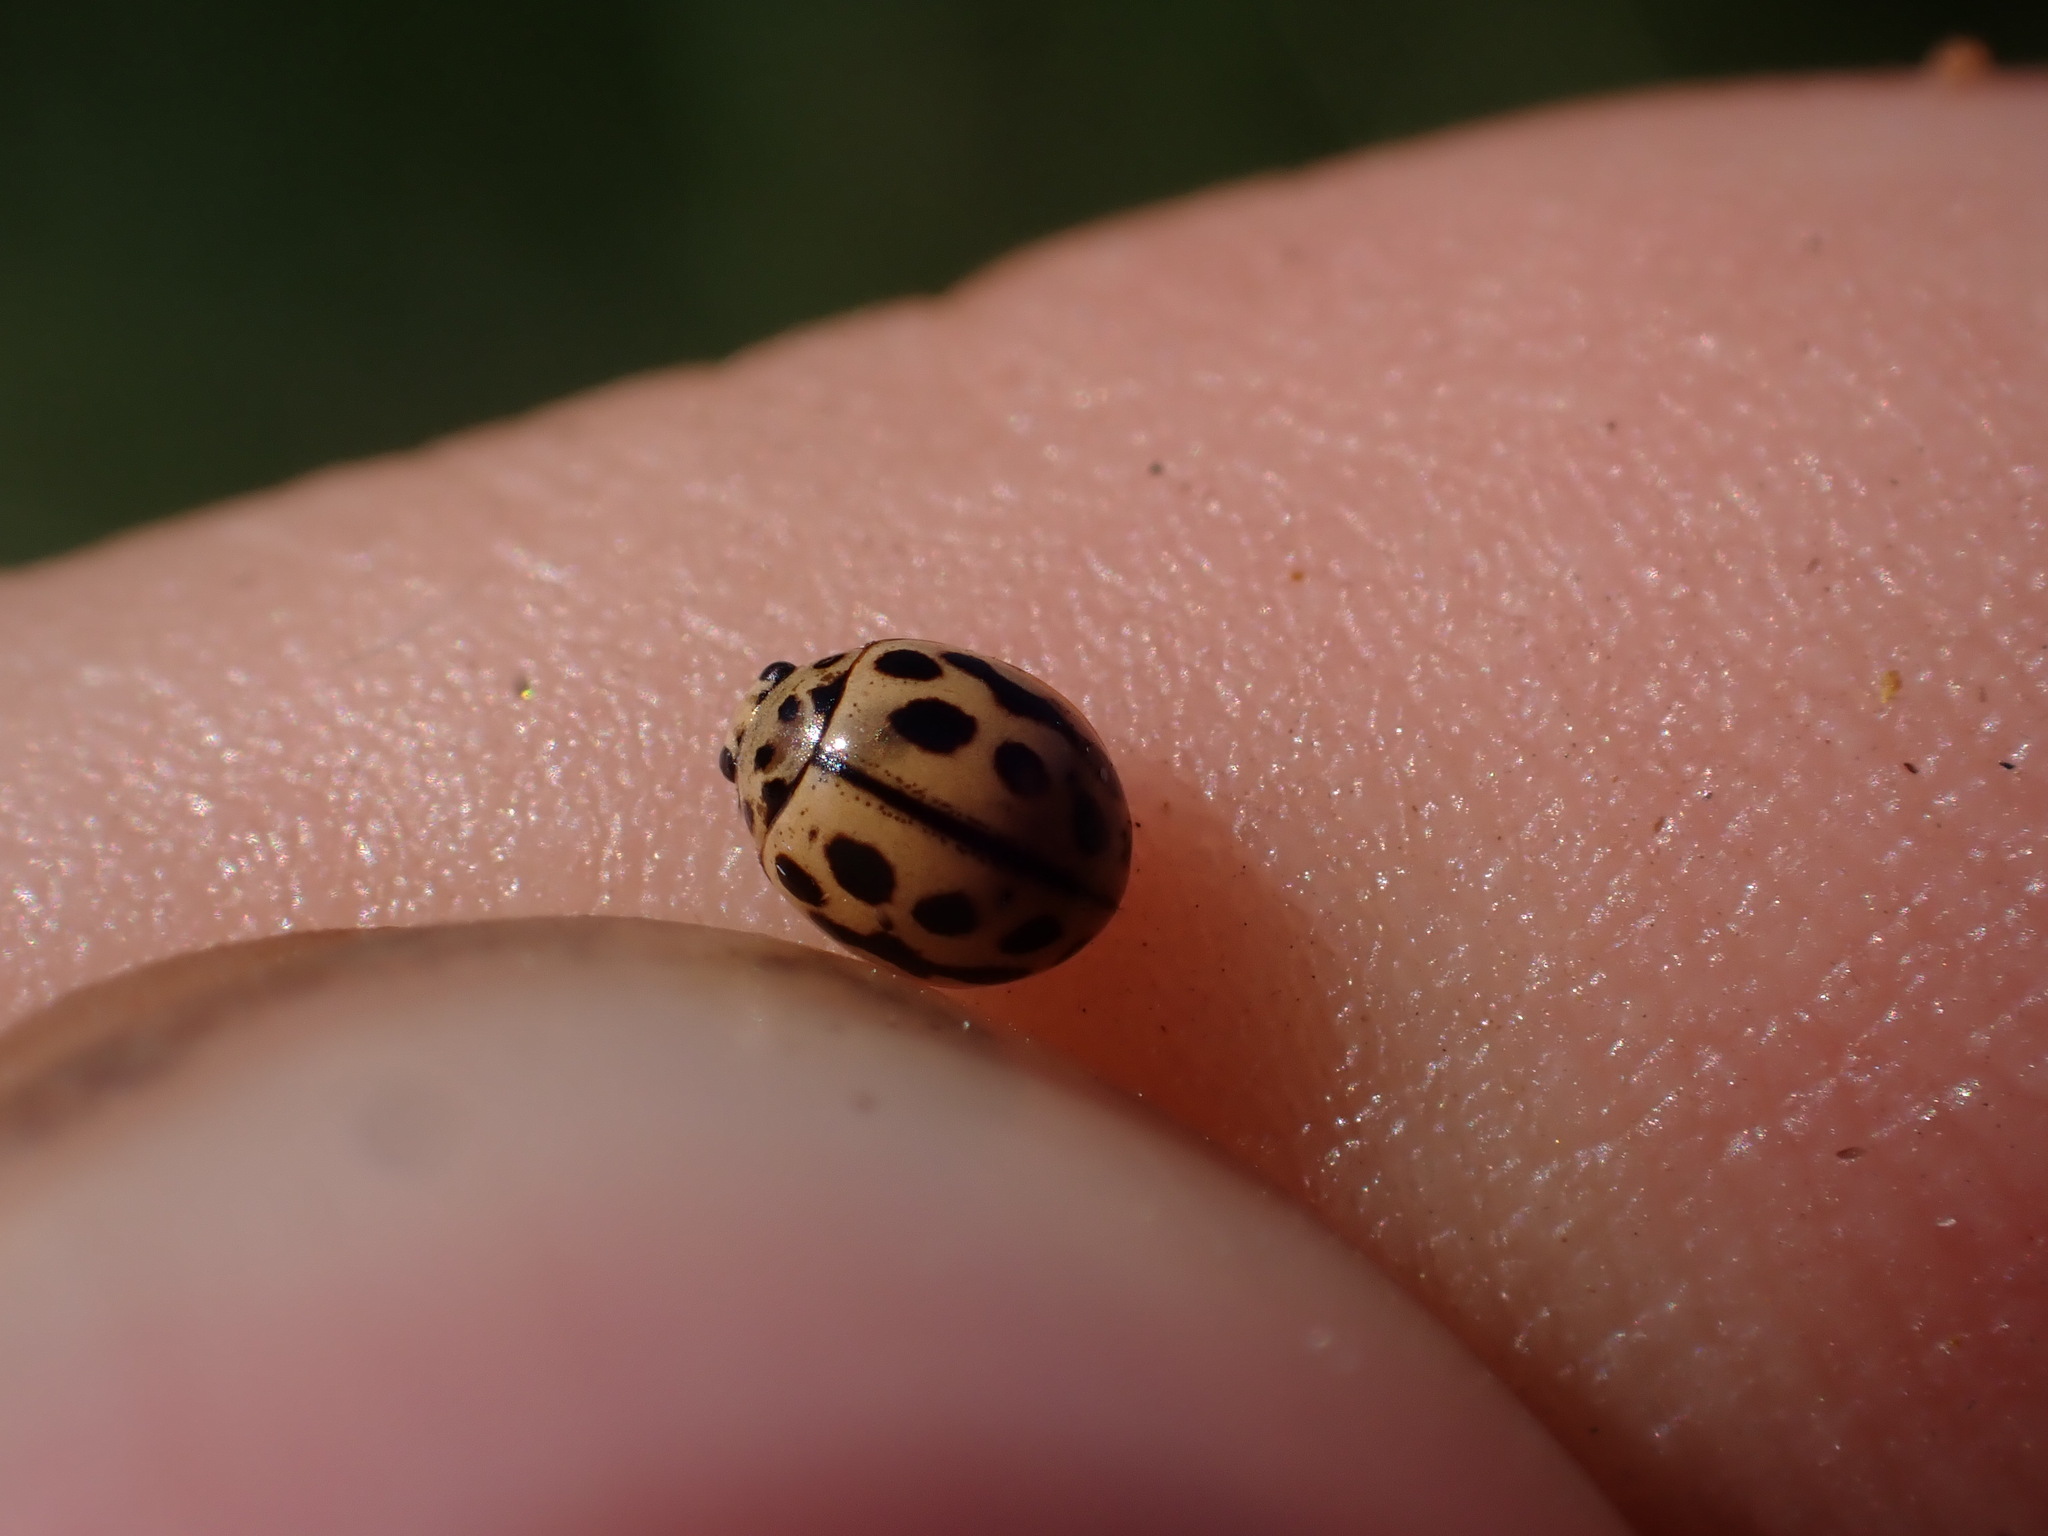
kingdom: Animalia
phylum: Arthropoda
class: Insecta
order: Coleoptera
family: Coccinellidae
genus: Tytthaspis
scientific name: Tytthaspis sedecimpunctata
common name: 16-spot ladybird
